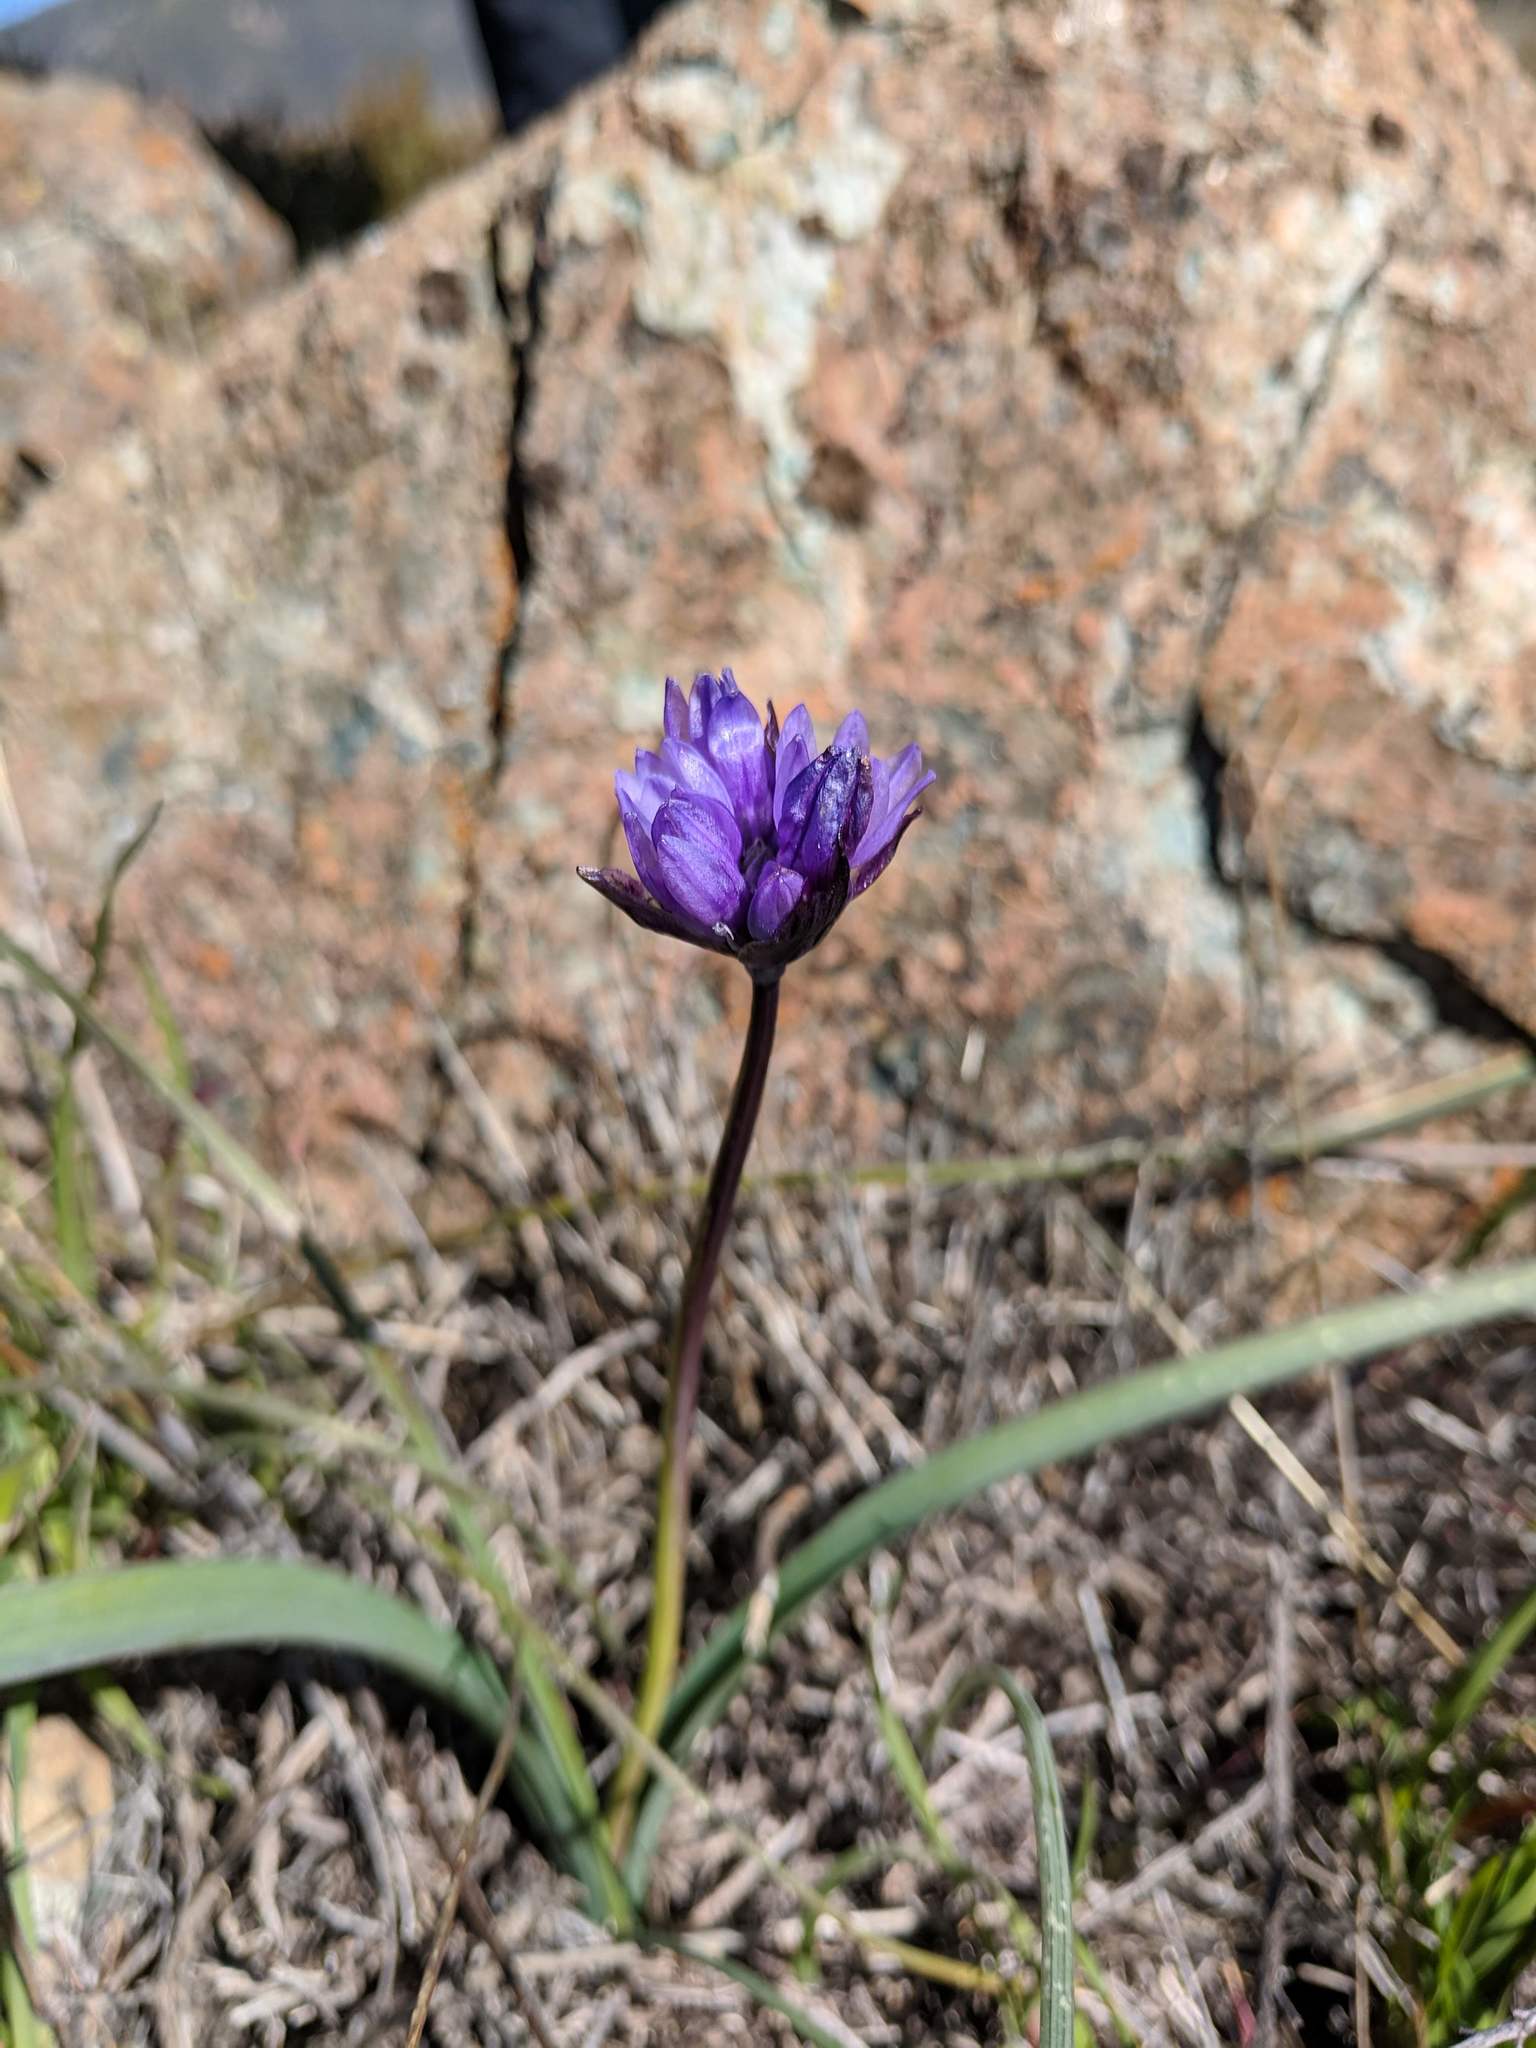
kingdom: Plantae
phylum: Tracheophyta
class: Liliopsida
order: Asparagales
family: Asparagaceae
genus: Dipterostemon
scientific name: Dipterostemon capitatus
